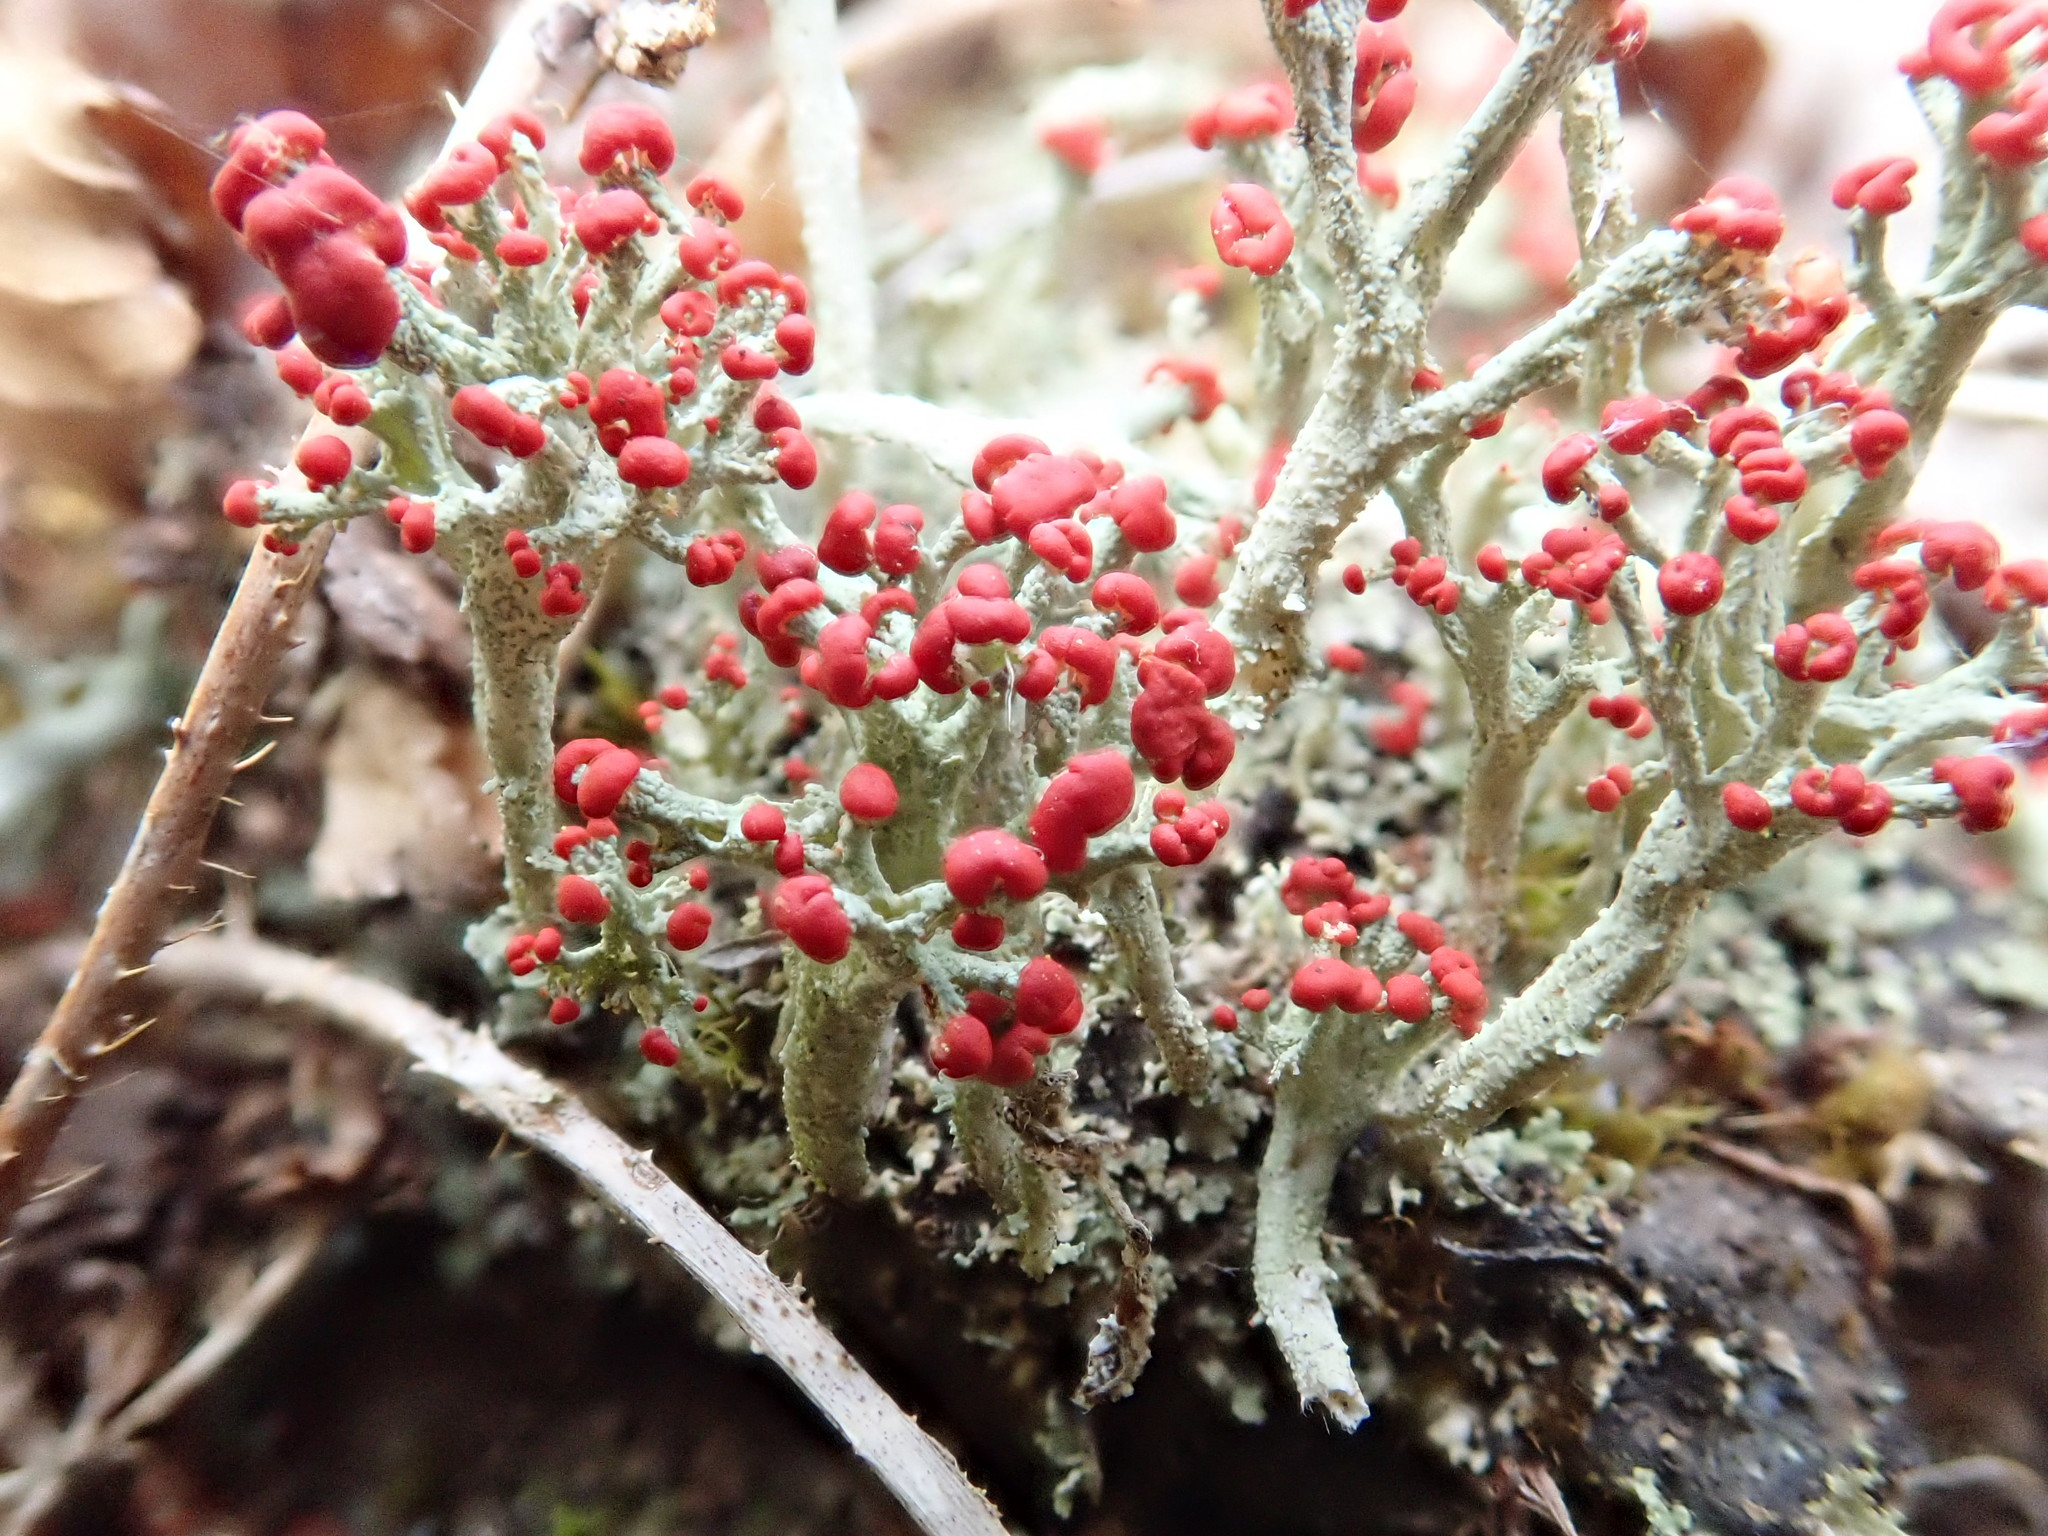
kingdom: Fungi
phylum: Ascomycota
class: Lecanoromycetes
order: Lecanorales
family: Cladoniaceae
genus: Cladonia
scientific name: Cladonia cristatella
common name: British soldier lichen
